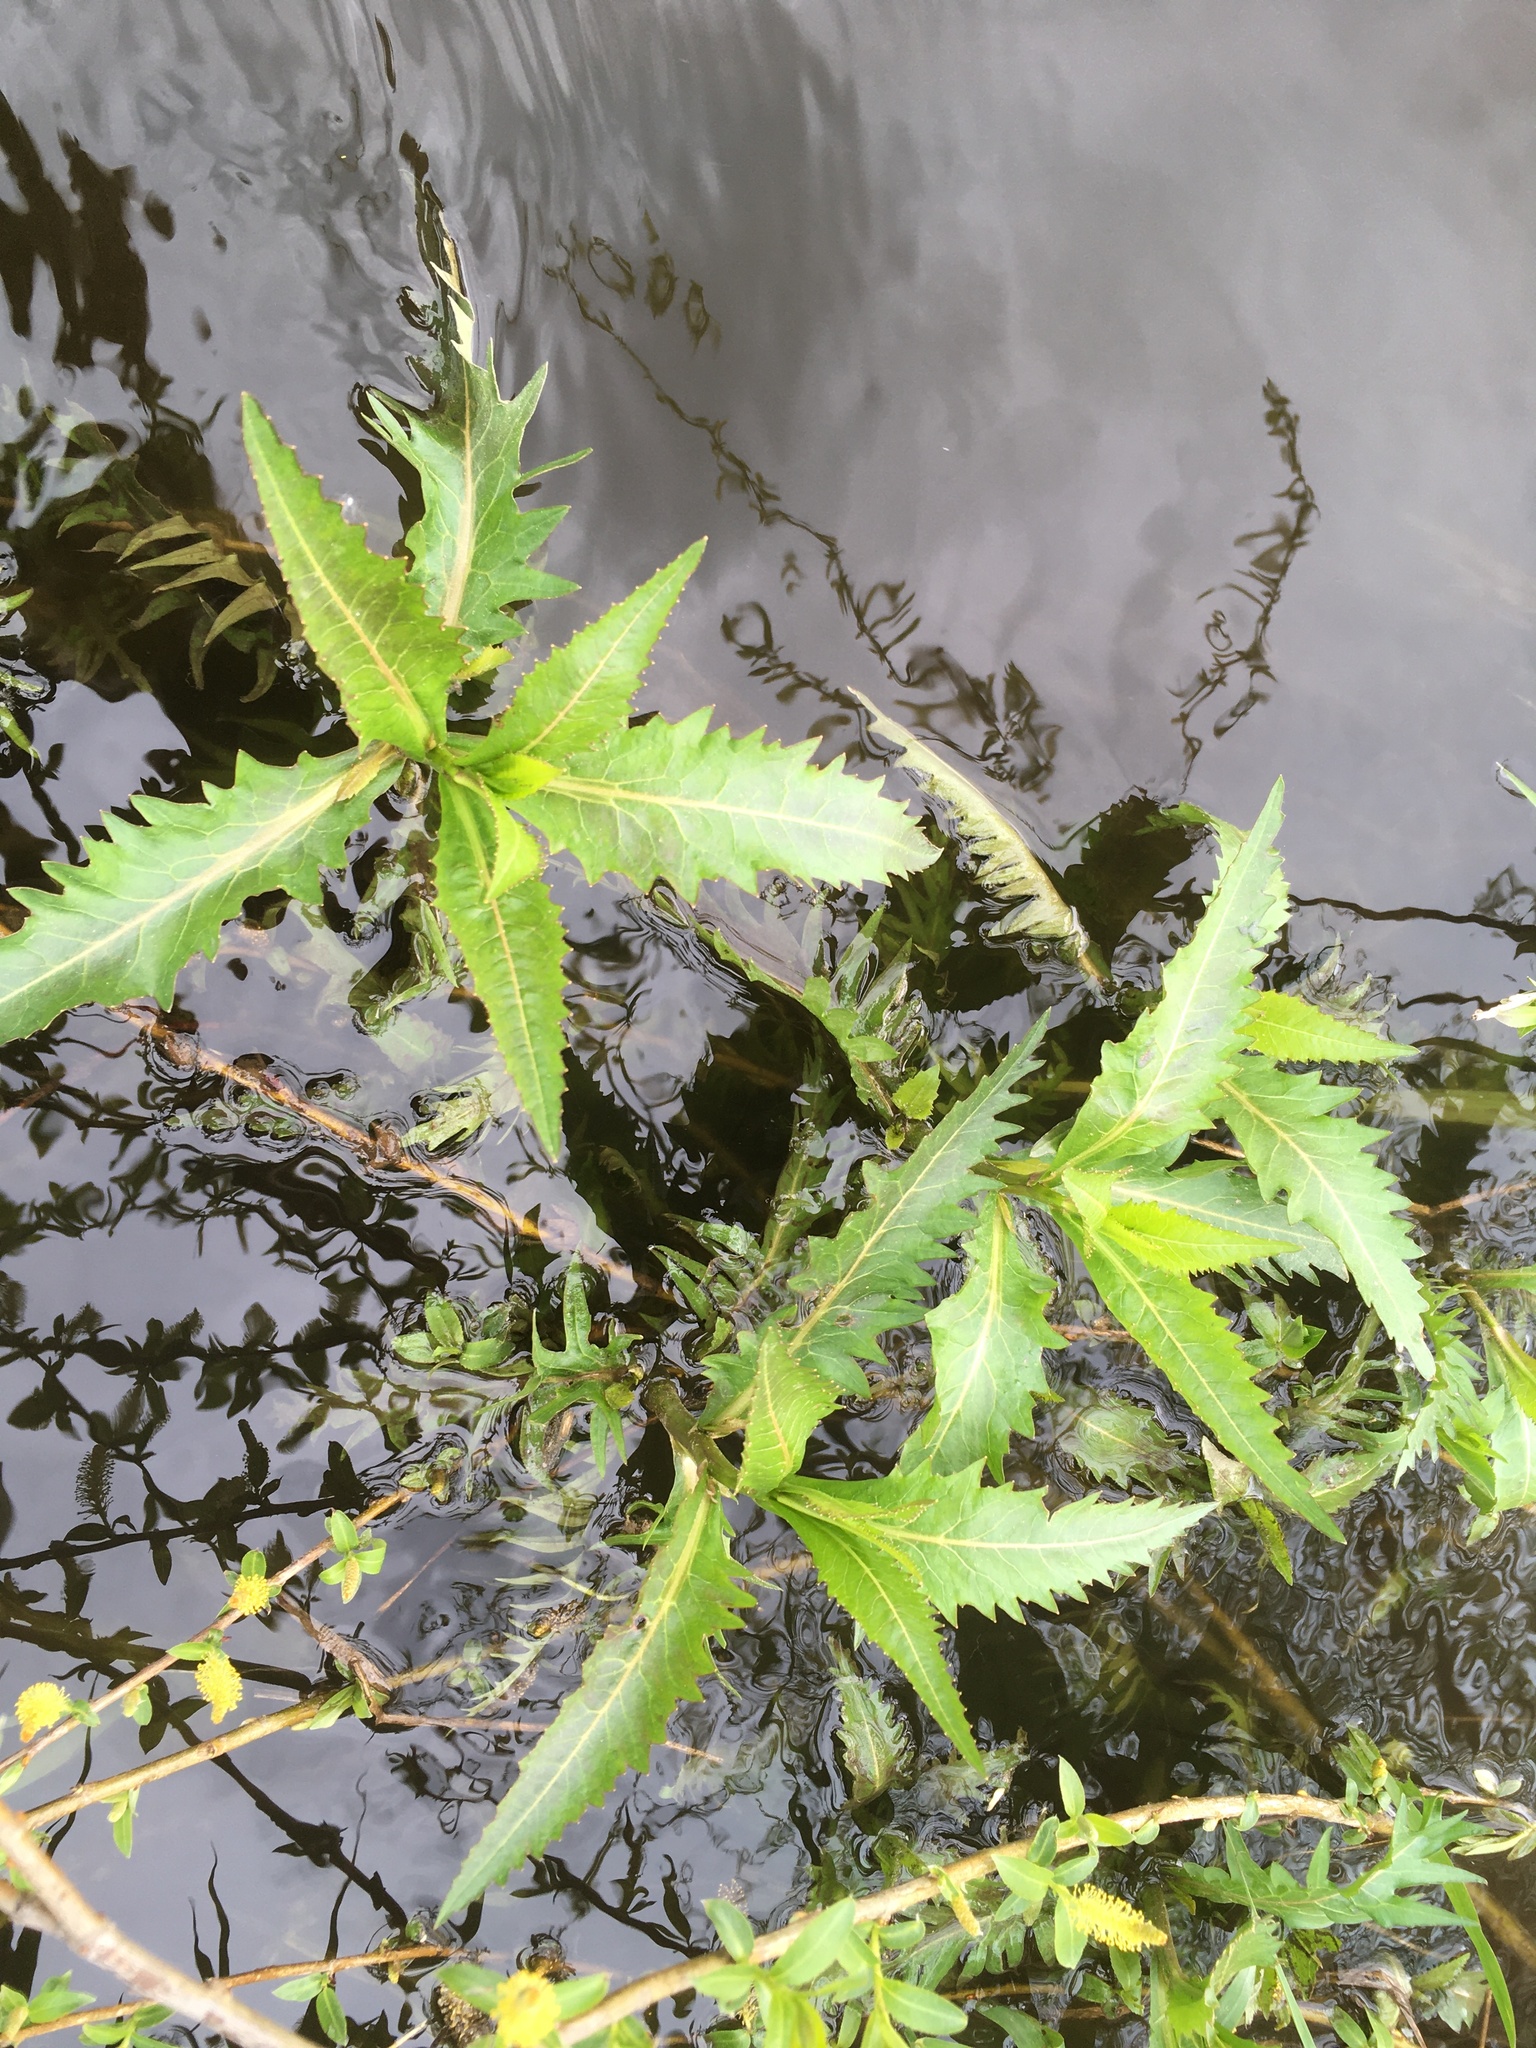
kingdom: Plantae
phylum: Tracheophyta
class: Magnoliopsida
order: Brassicales
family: Brassicaceae
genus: Rorippa
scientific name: Rorippa amphibia
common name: Great yellow-cress
